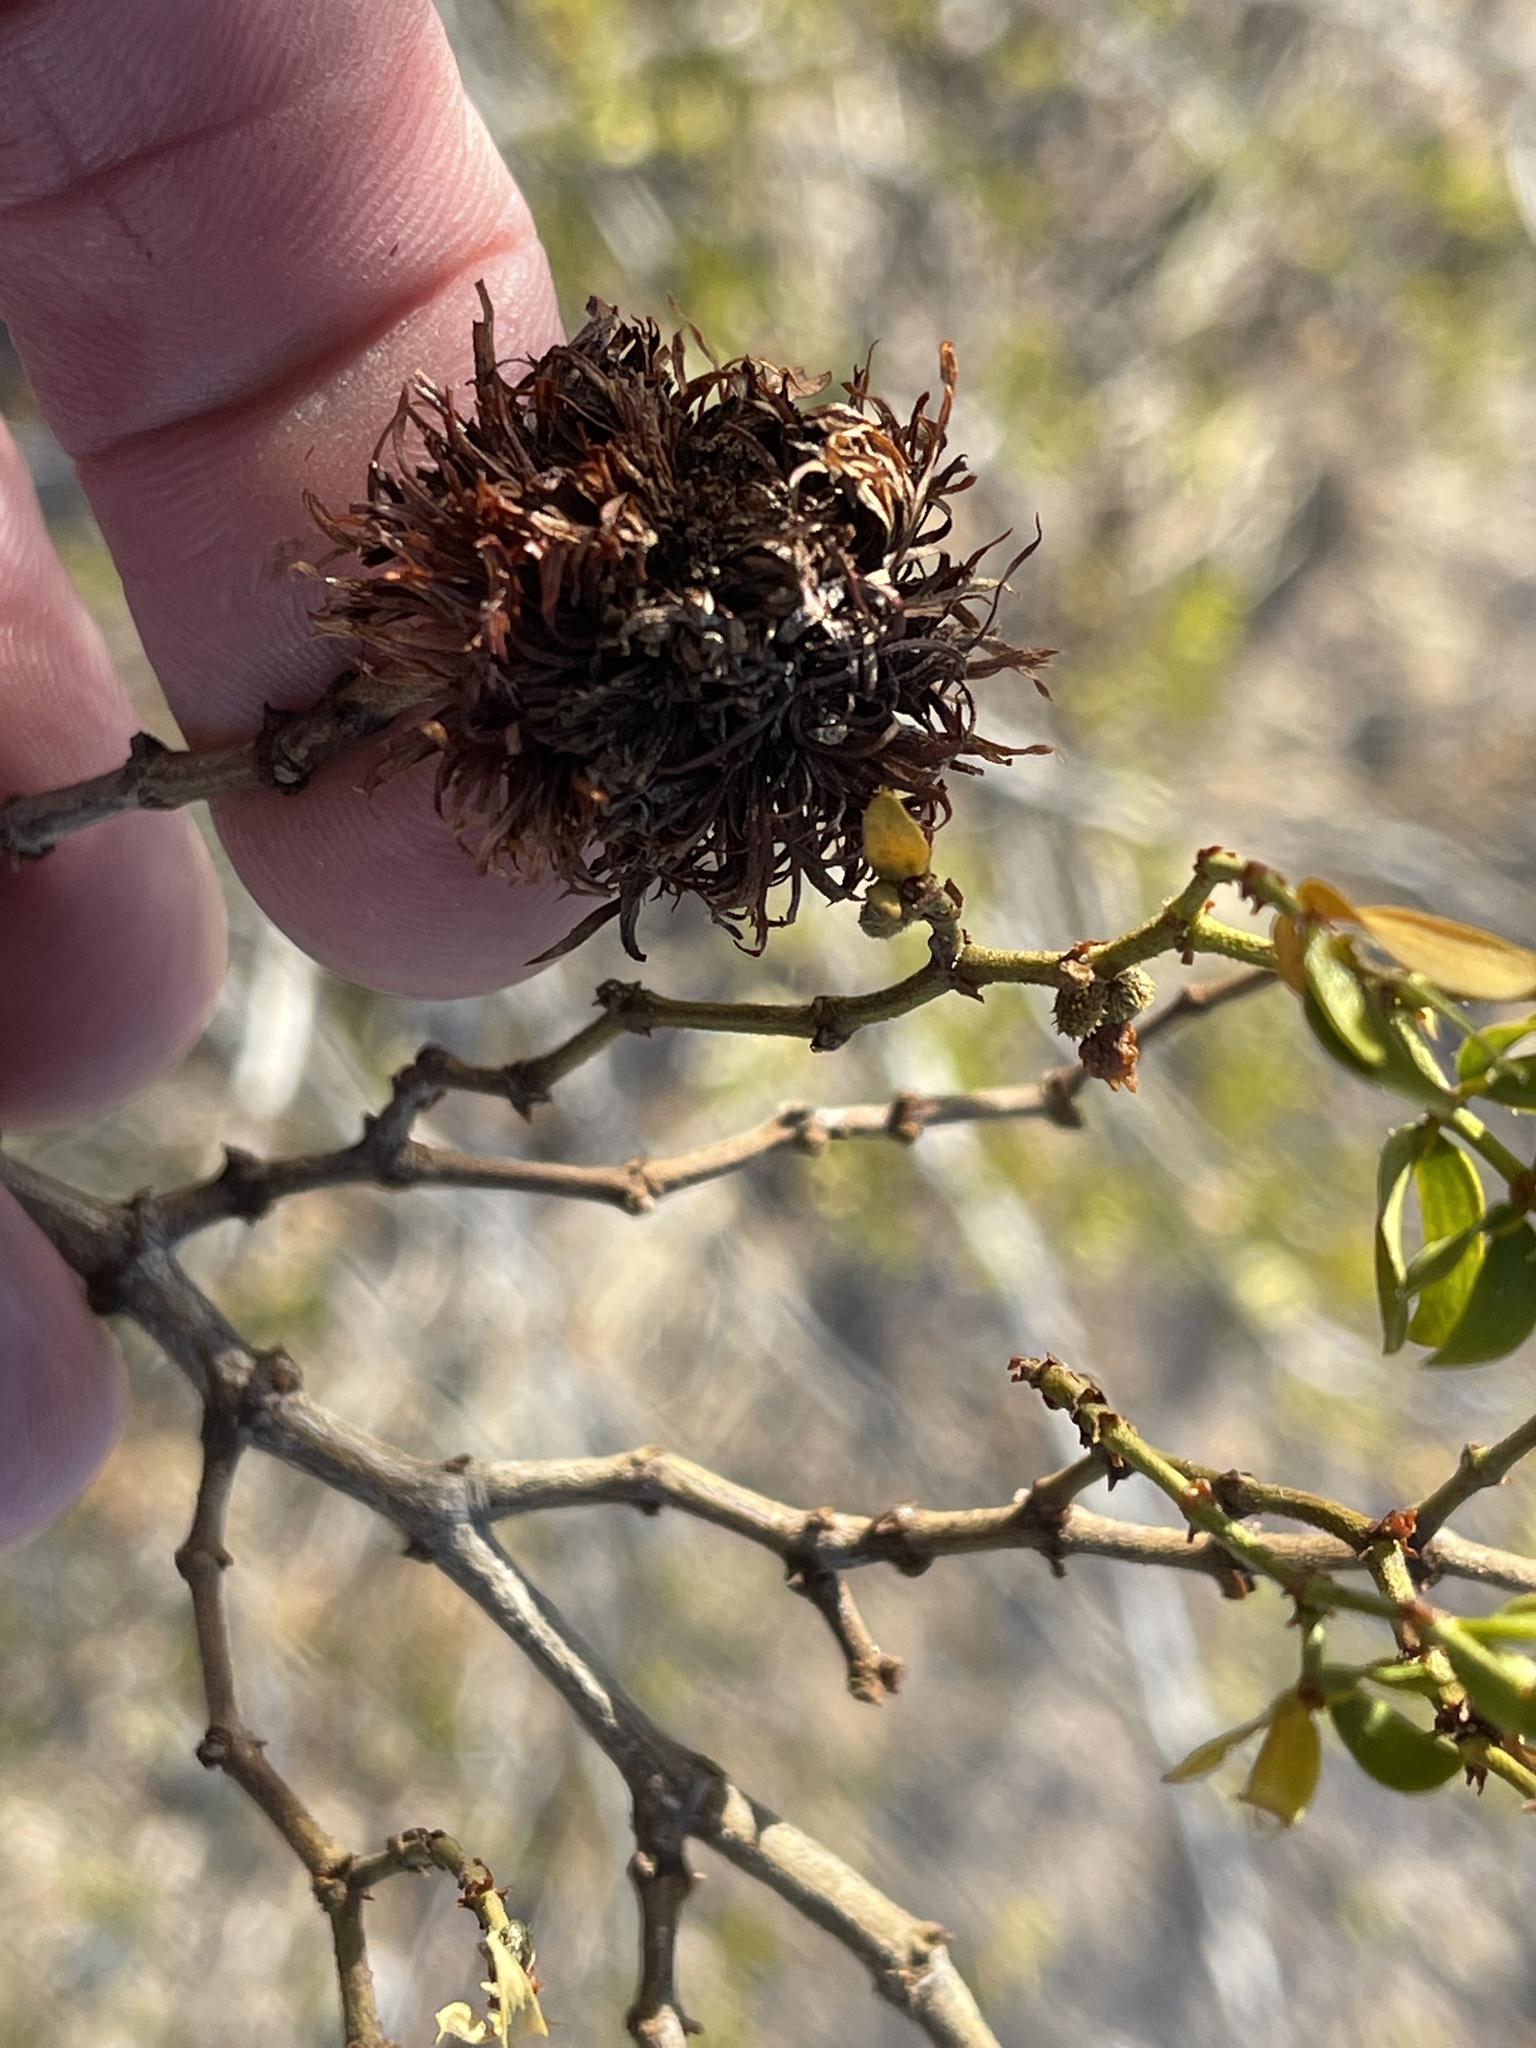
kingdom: Animalia
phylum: Arthropoda
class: Insecta
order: Diptera
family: Cecidomyiidae
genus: Asphondylia
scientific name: Asphondylia auripila
